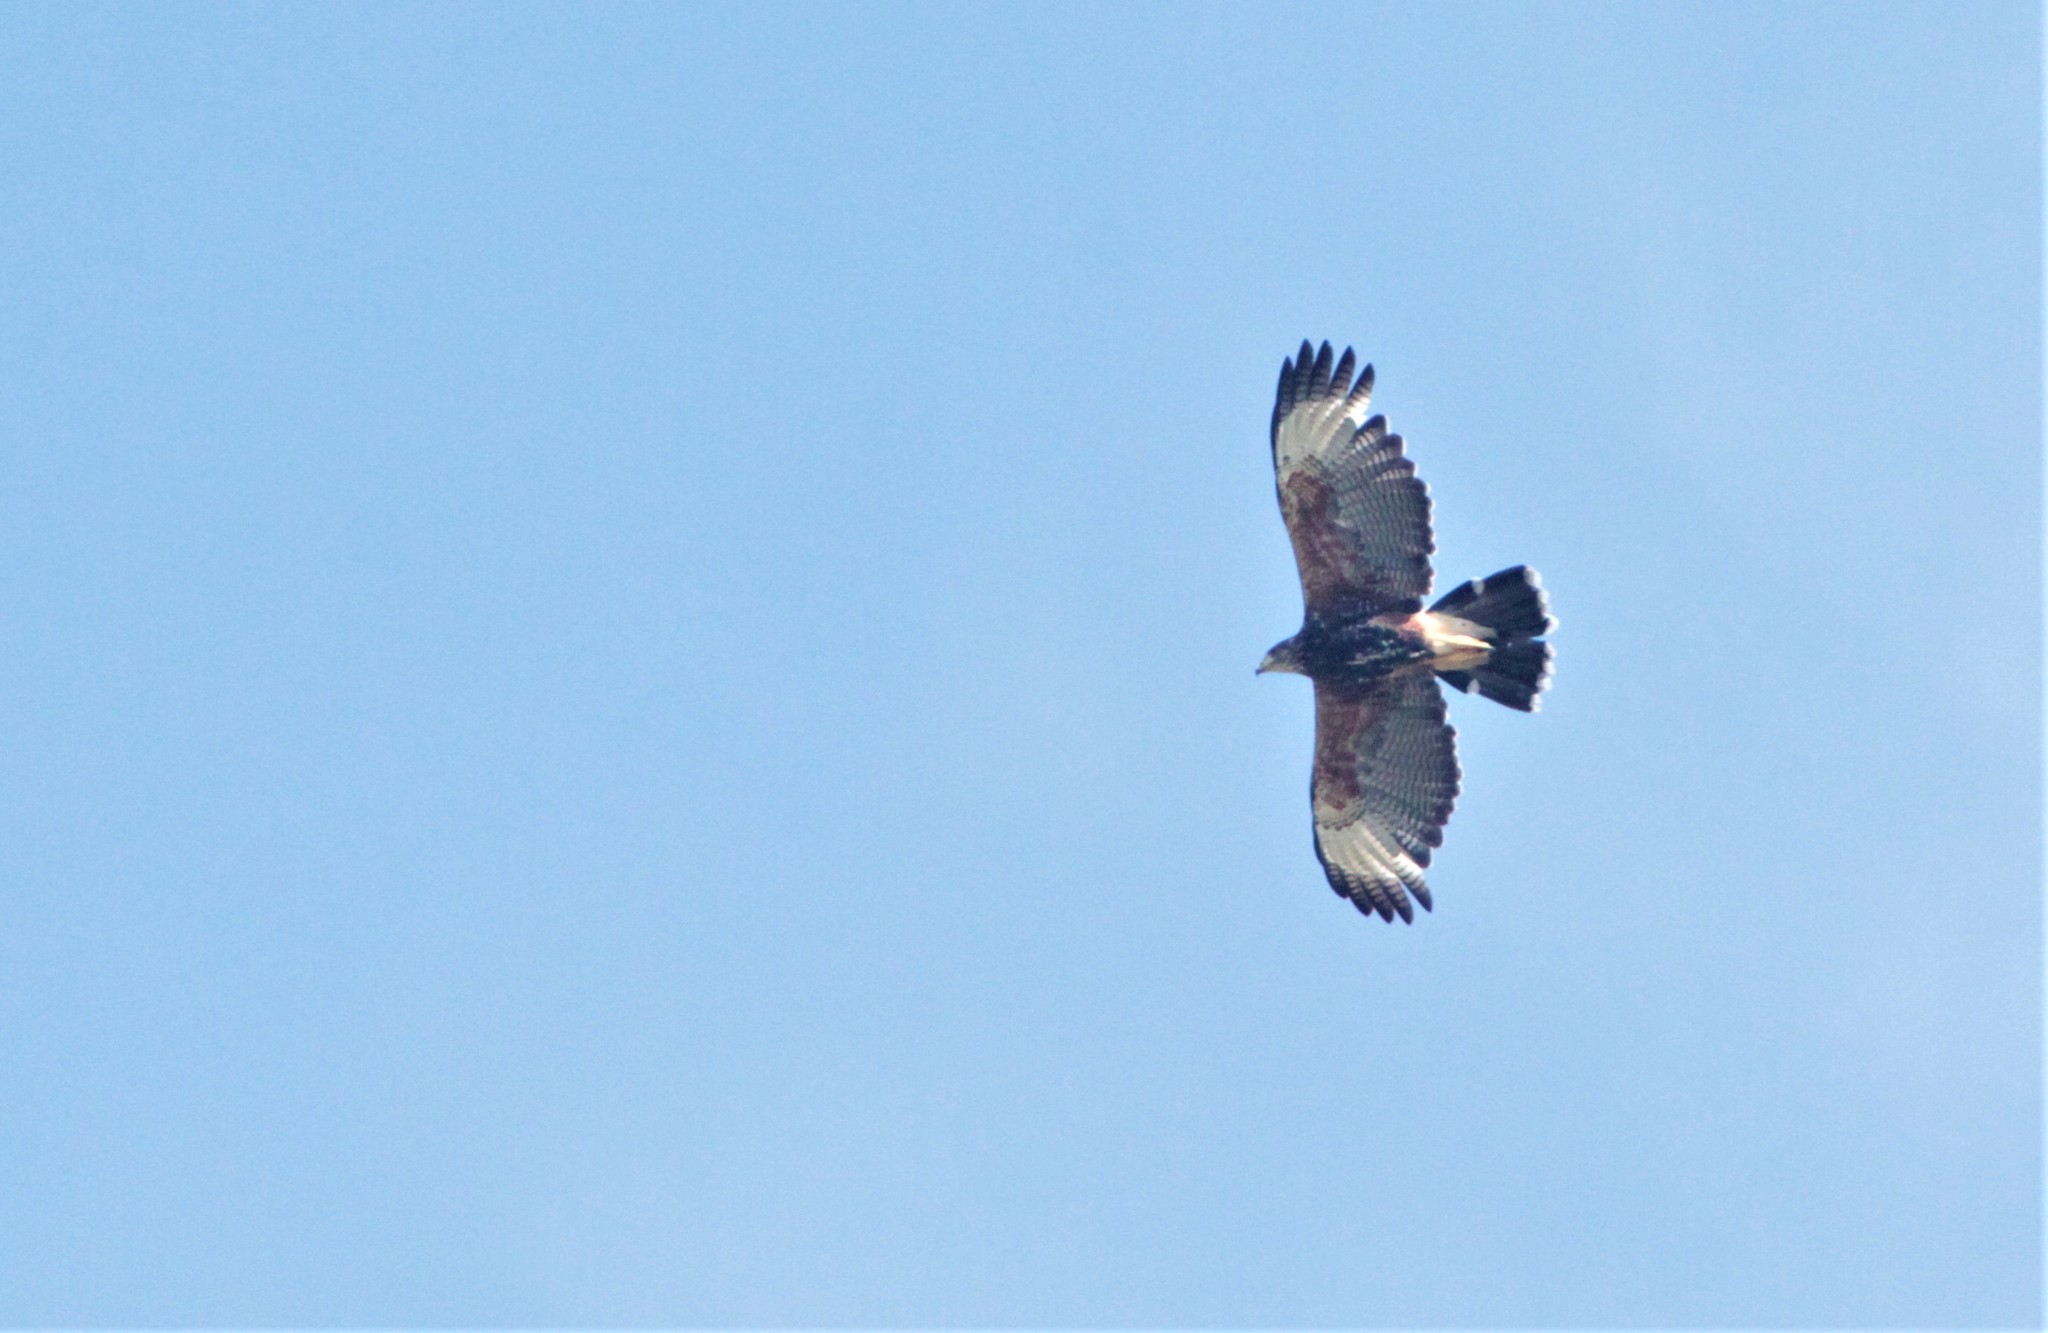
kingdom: Animalia
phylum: Chordata
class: Aves
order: Accipitriformes
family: Accipitridae
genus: Parabuteo
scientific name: Parabuteo unicinctus
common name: Harris's hawk
